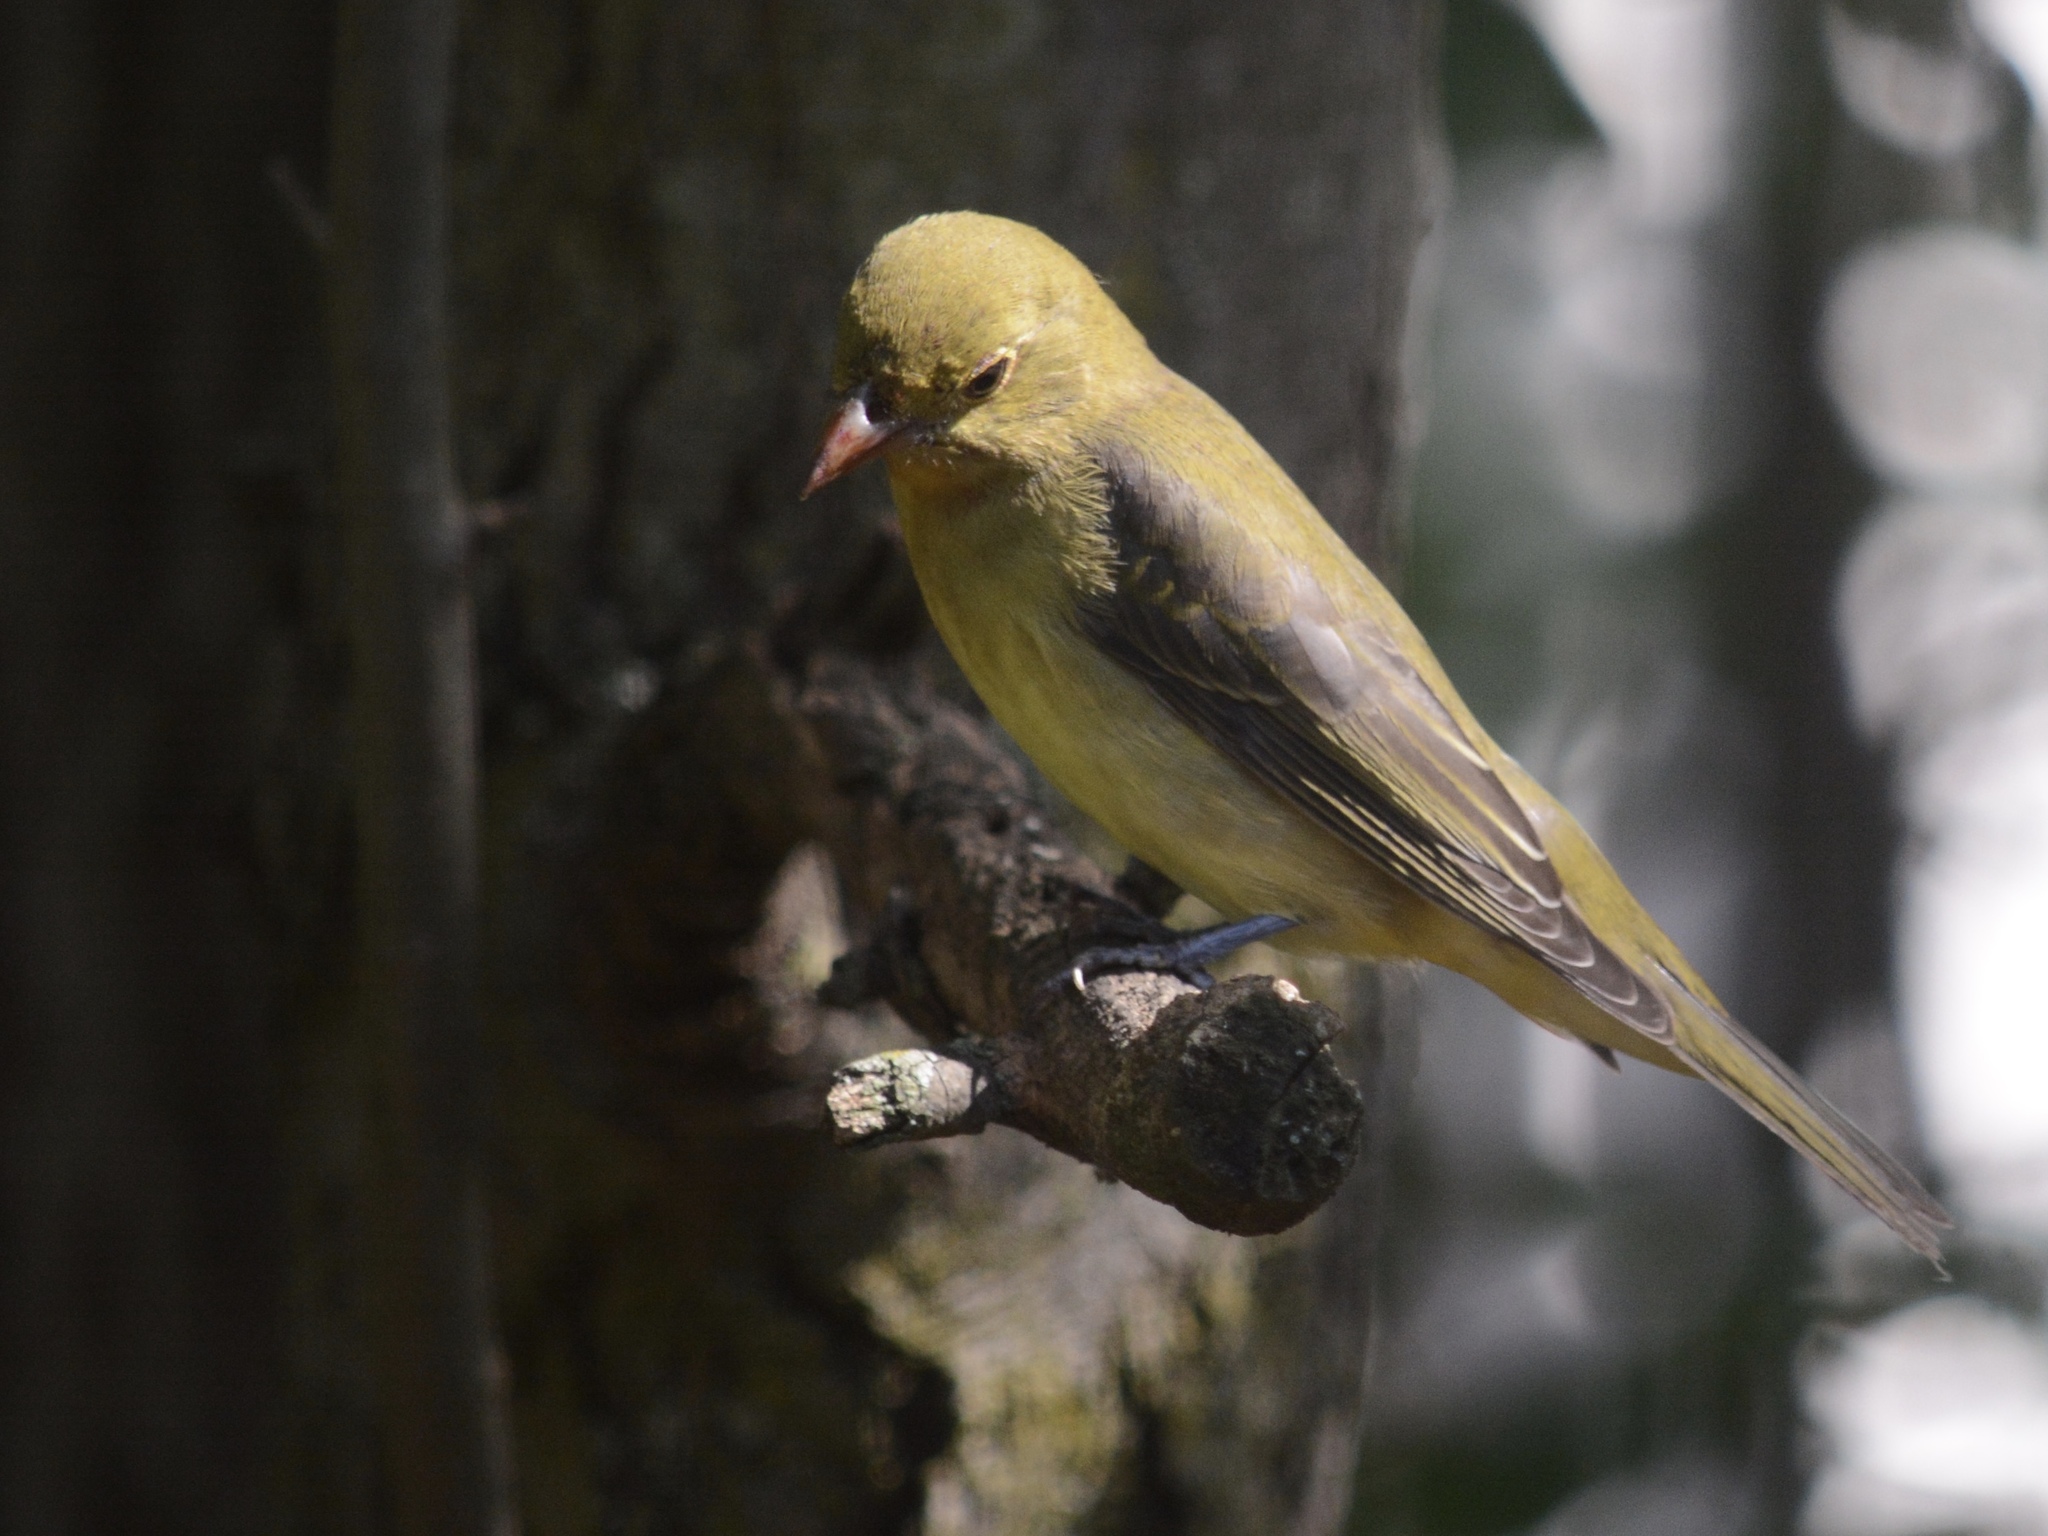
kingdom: Animalia
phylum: Chordata
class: Aves
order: Passeriformes
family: Cardinalidae
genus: Piranga
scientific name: Piranga olivacea
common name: Scarlet tanager
